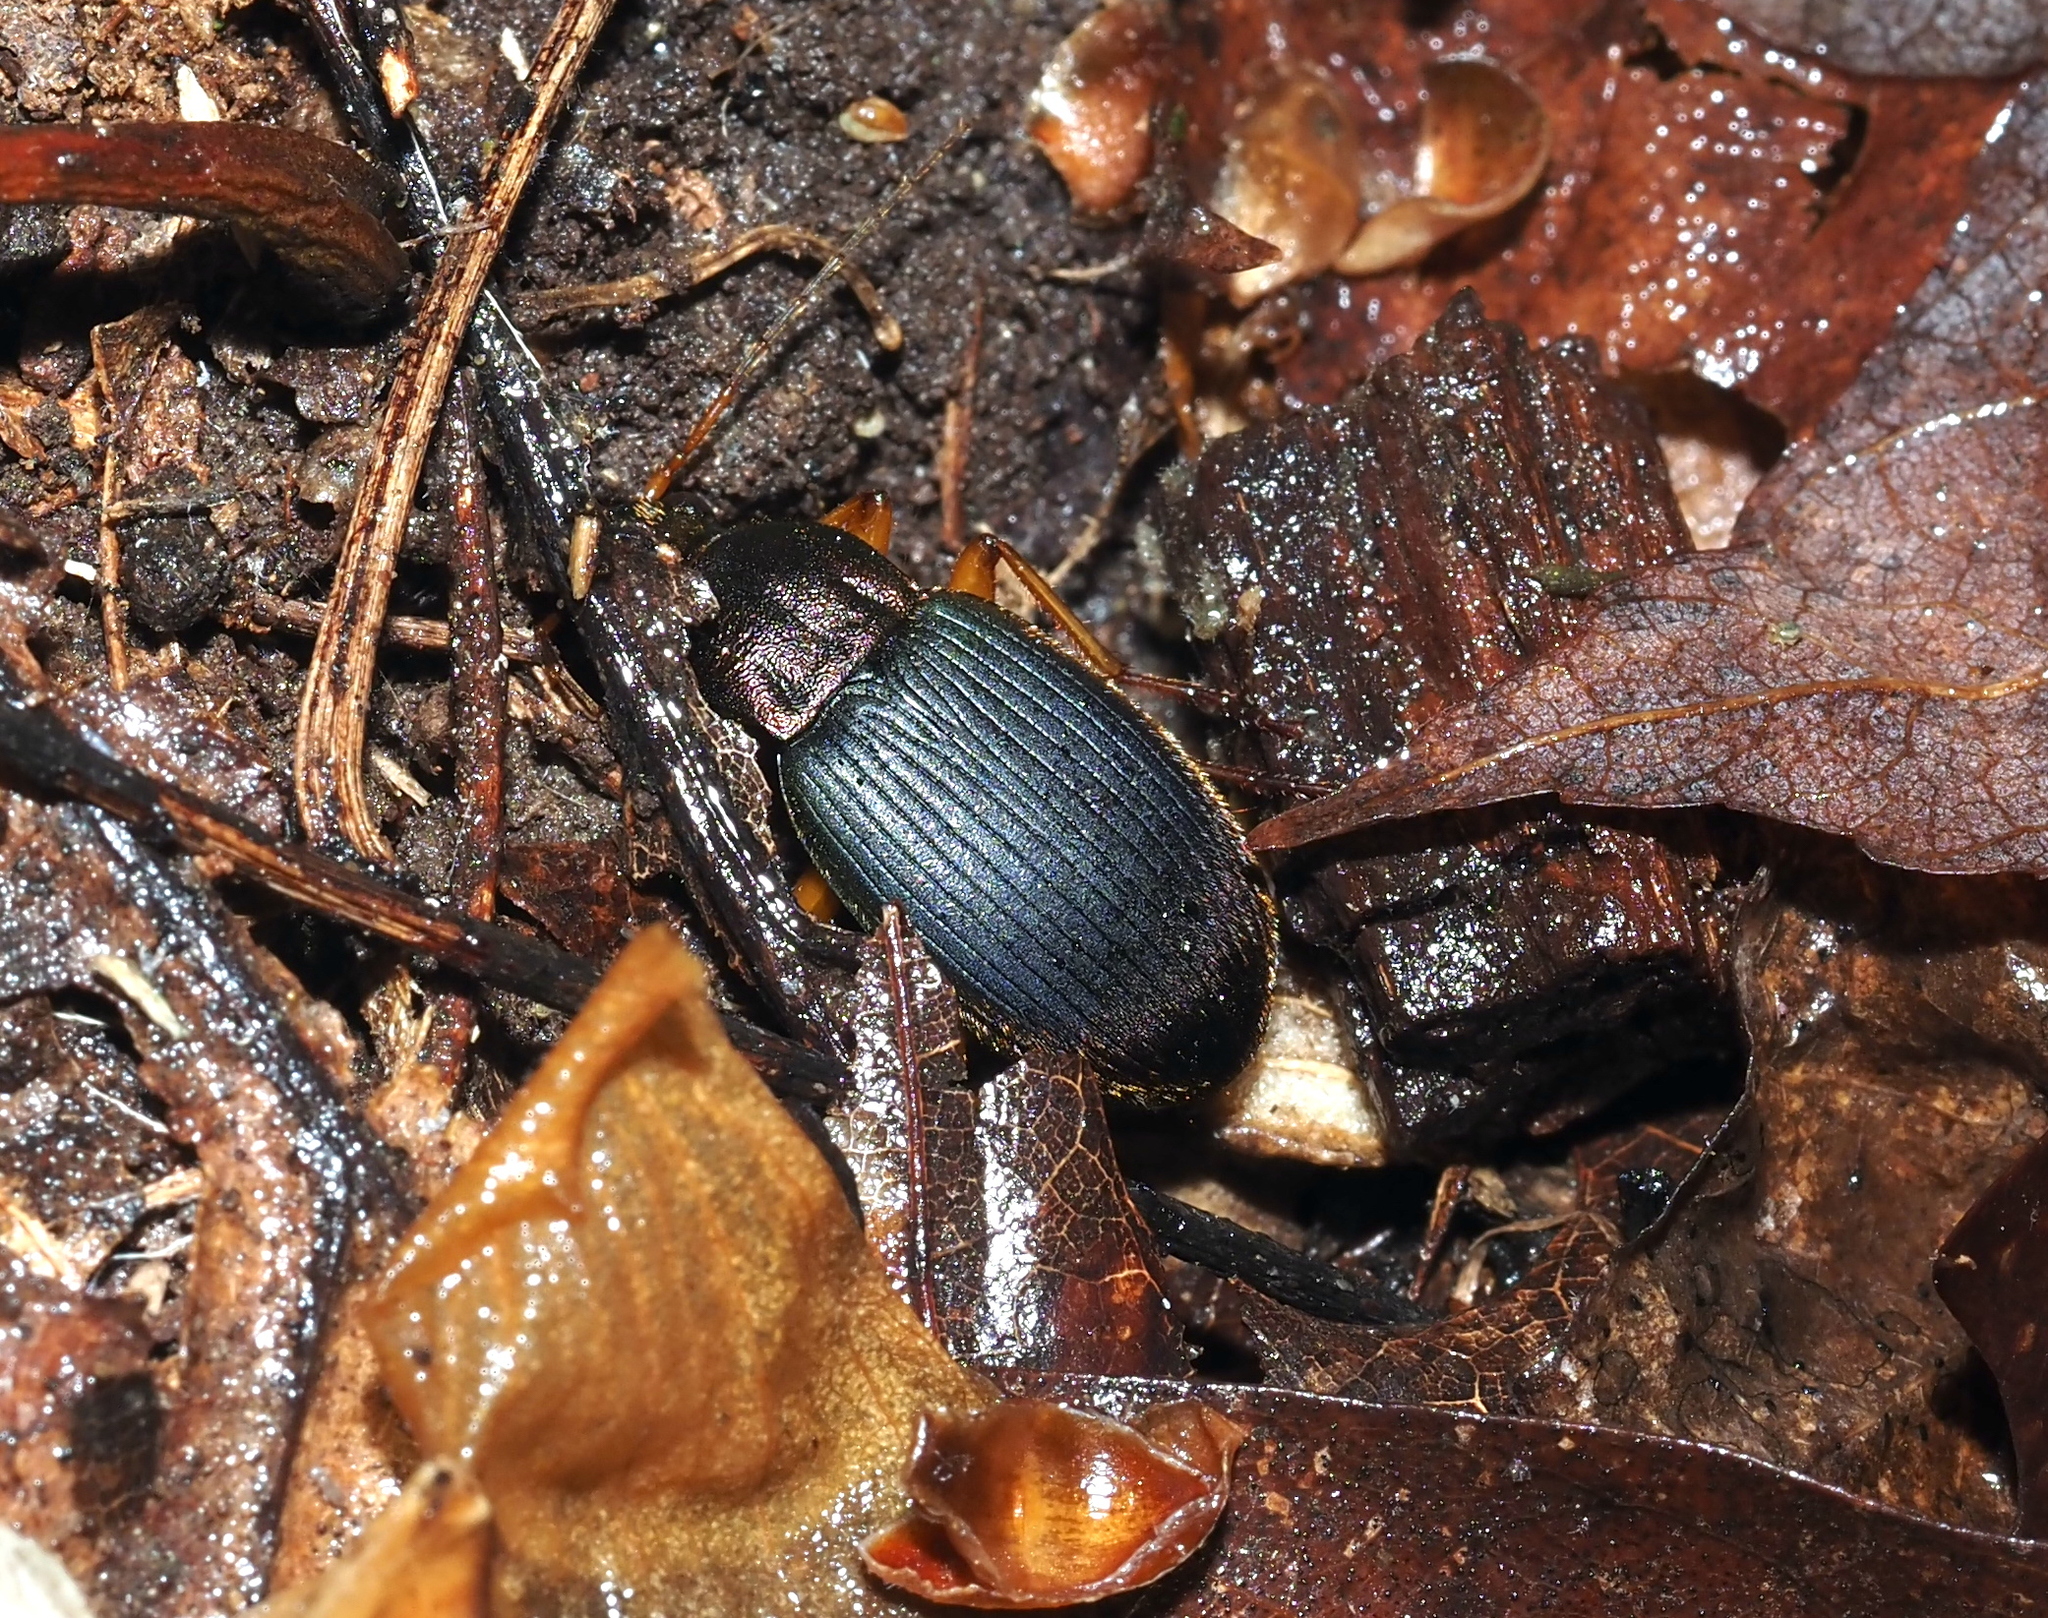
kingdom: Animalia
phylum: Arthropoda
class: Insecta
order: Coleoptera
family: Carabidae
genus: Chlaenius
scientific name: Chlaenius aestivus
